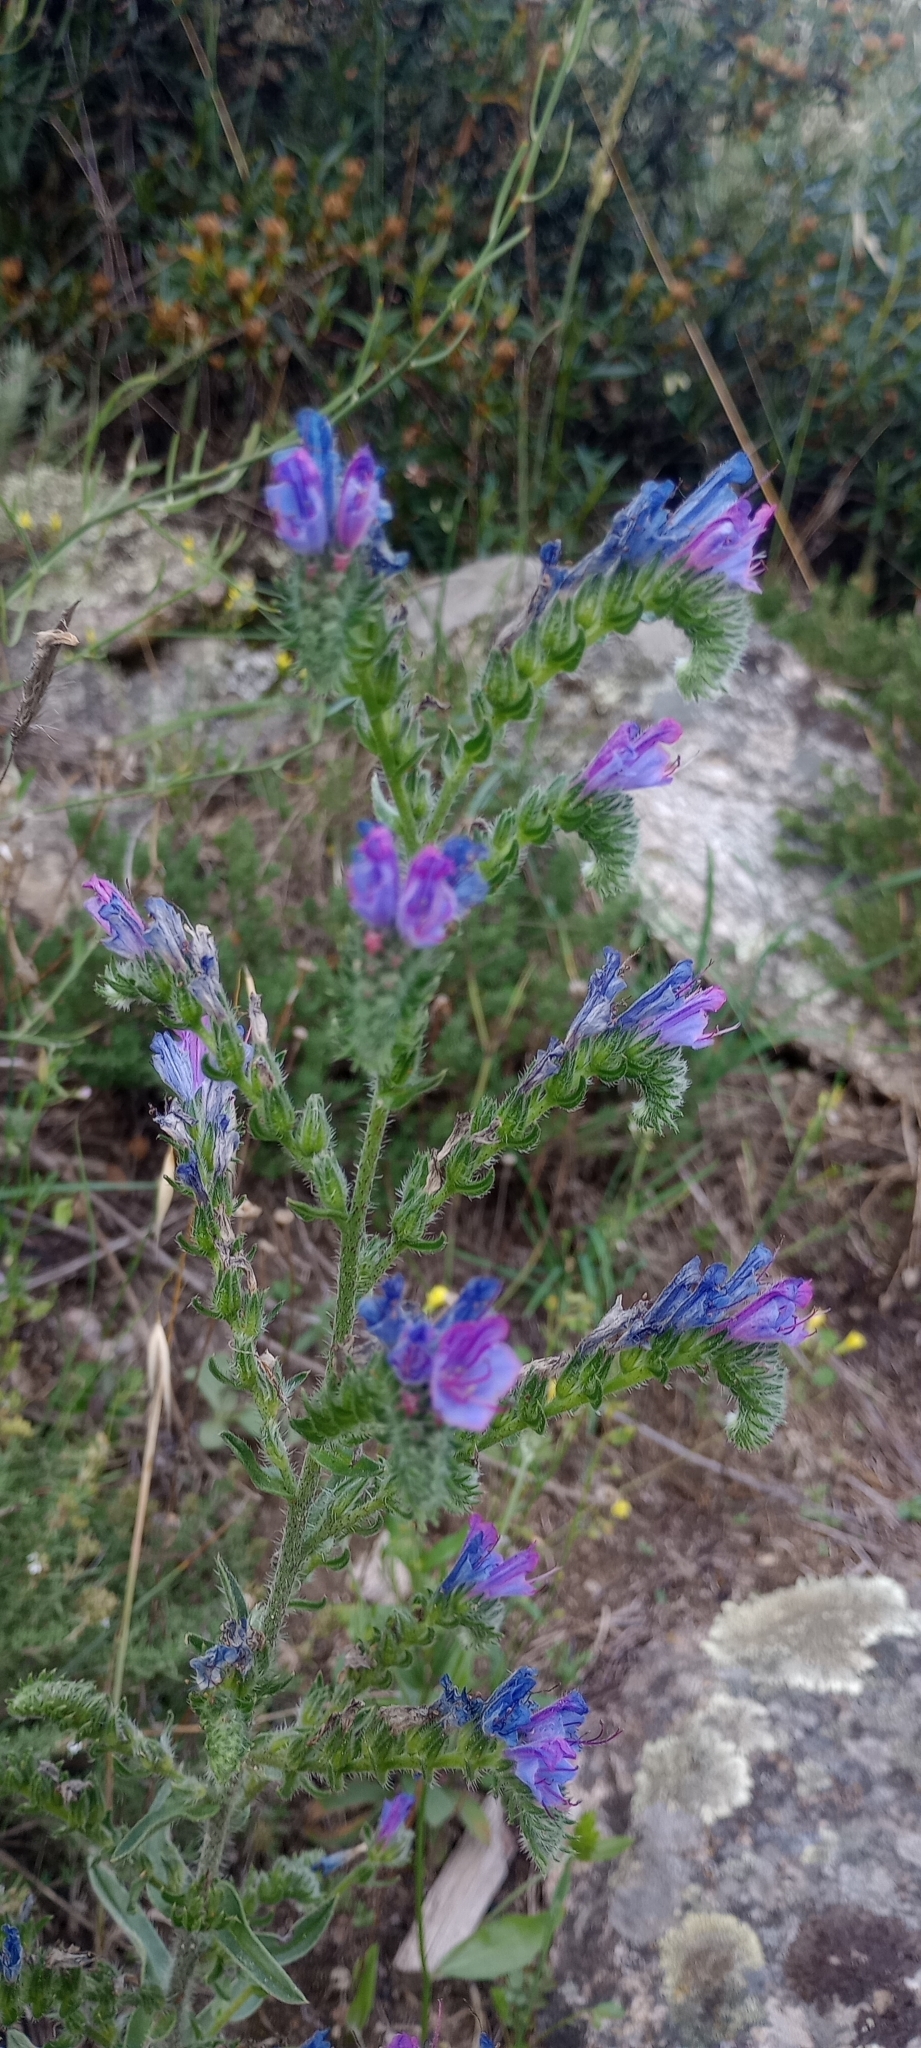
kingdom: Plantae
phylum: Tracheophyta
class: Magnoliopsida
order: Boraginales
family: Boraginaceae
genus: Echium
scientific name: Echium vulgare
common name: Common viper's bugloss
